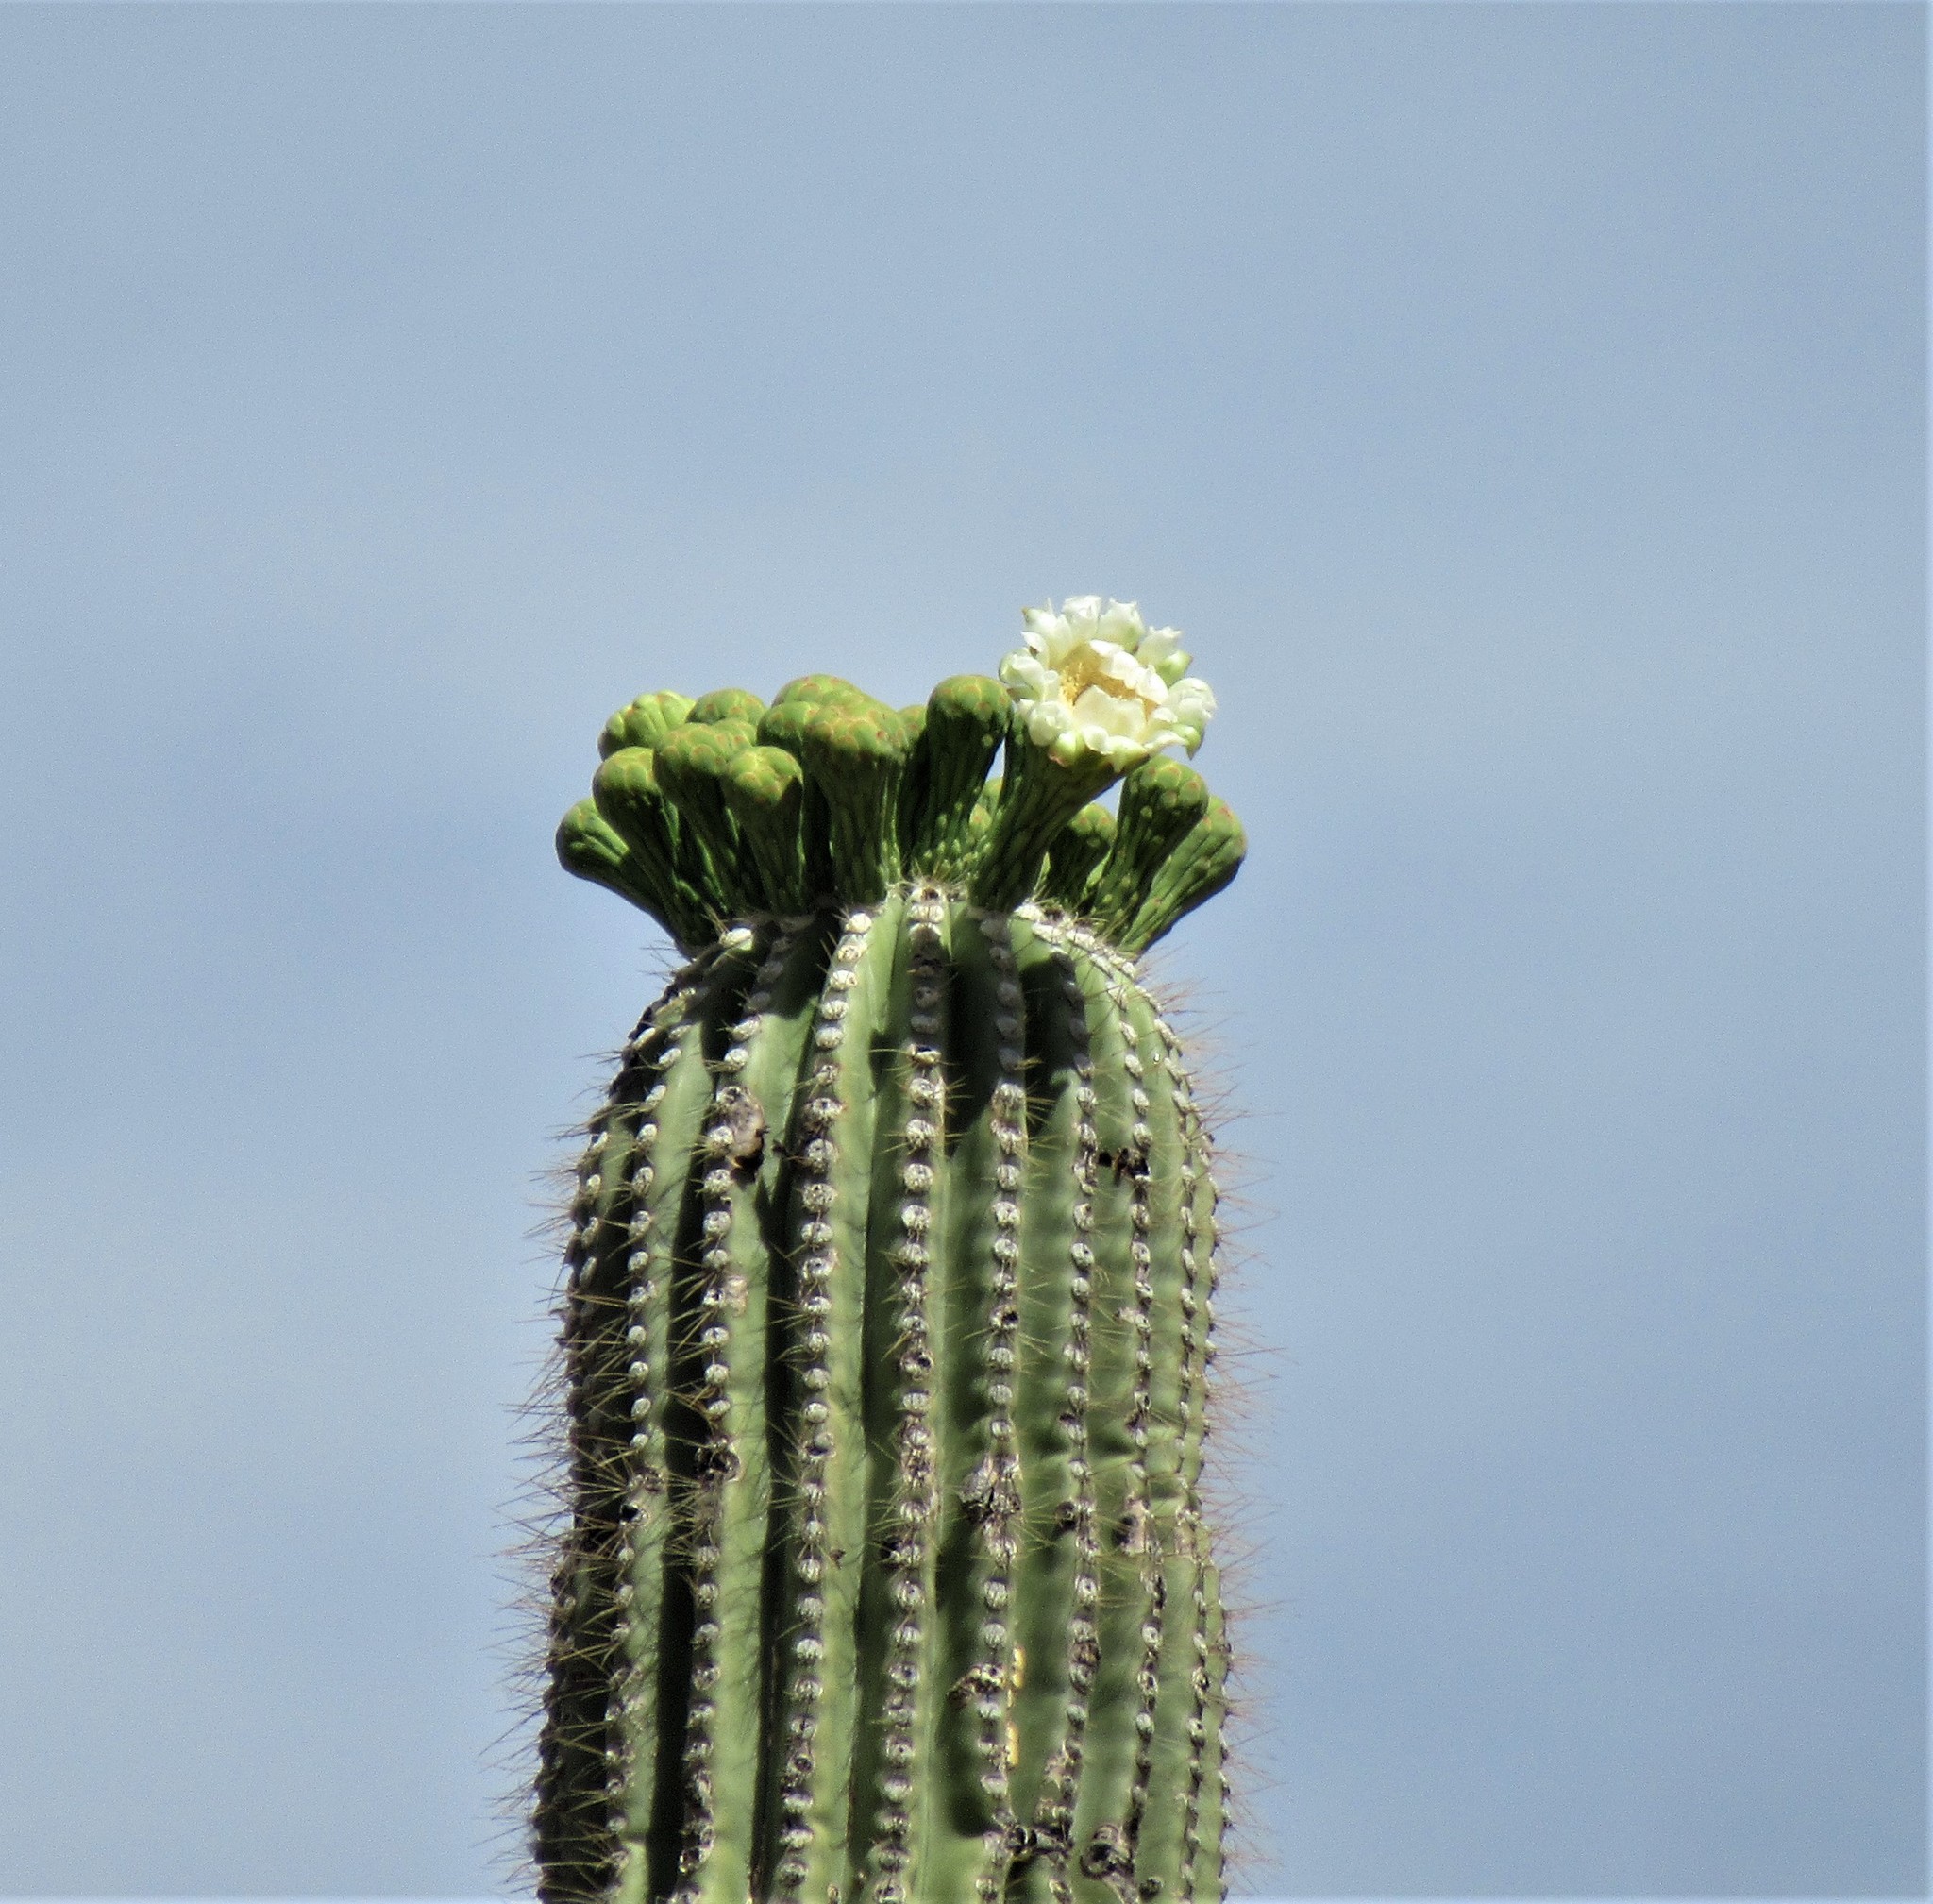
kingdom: Plantae
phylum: Tracheophyta
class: Magnoliopsida
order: Caryophyllales
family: Cactaceae
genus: Carnegiea
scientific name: Carnegiea gigantea
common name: Saguaro
